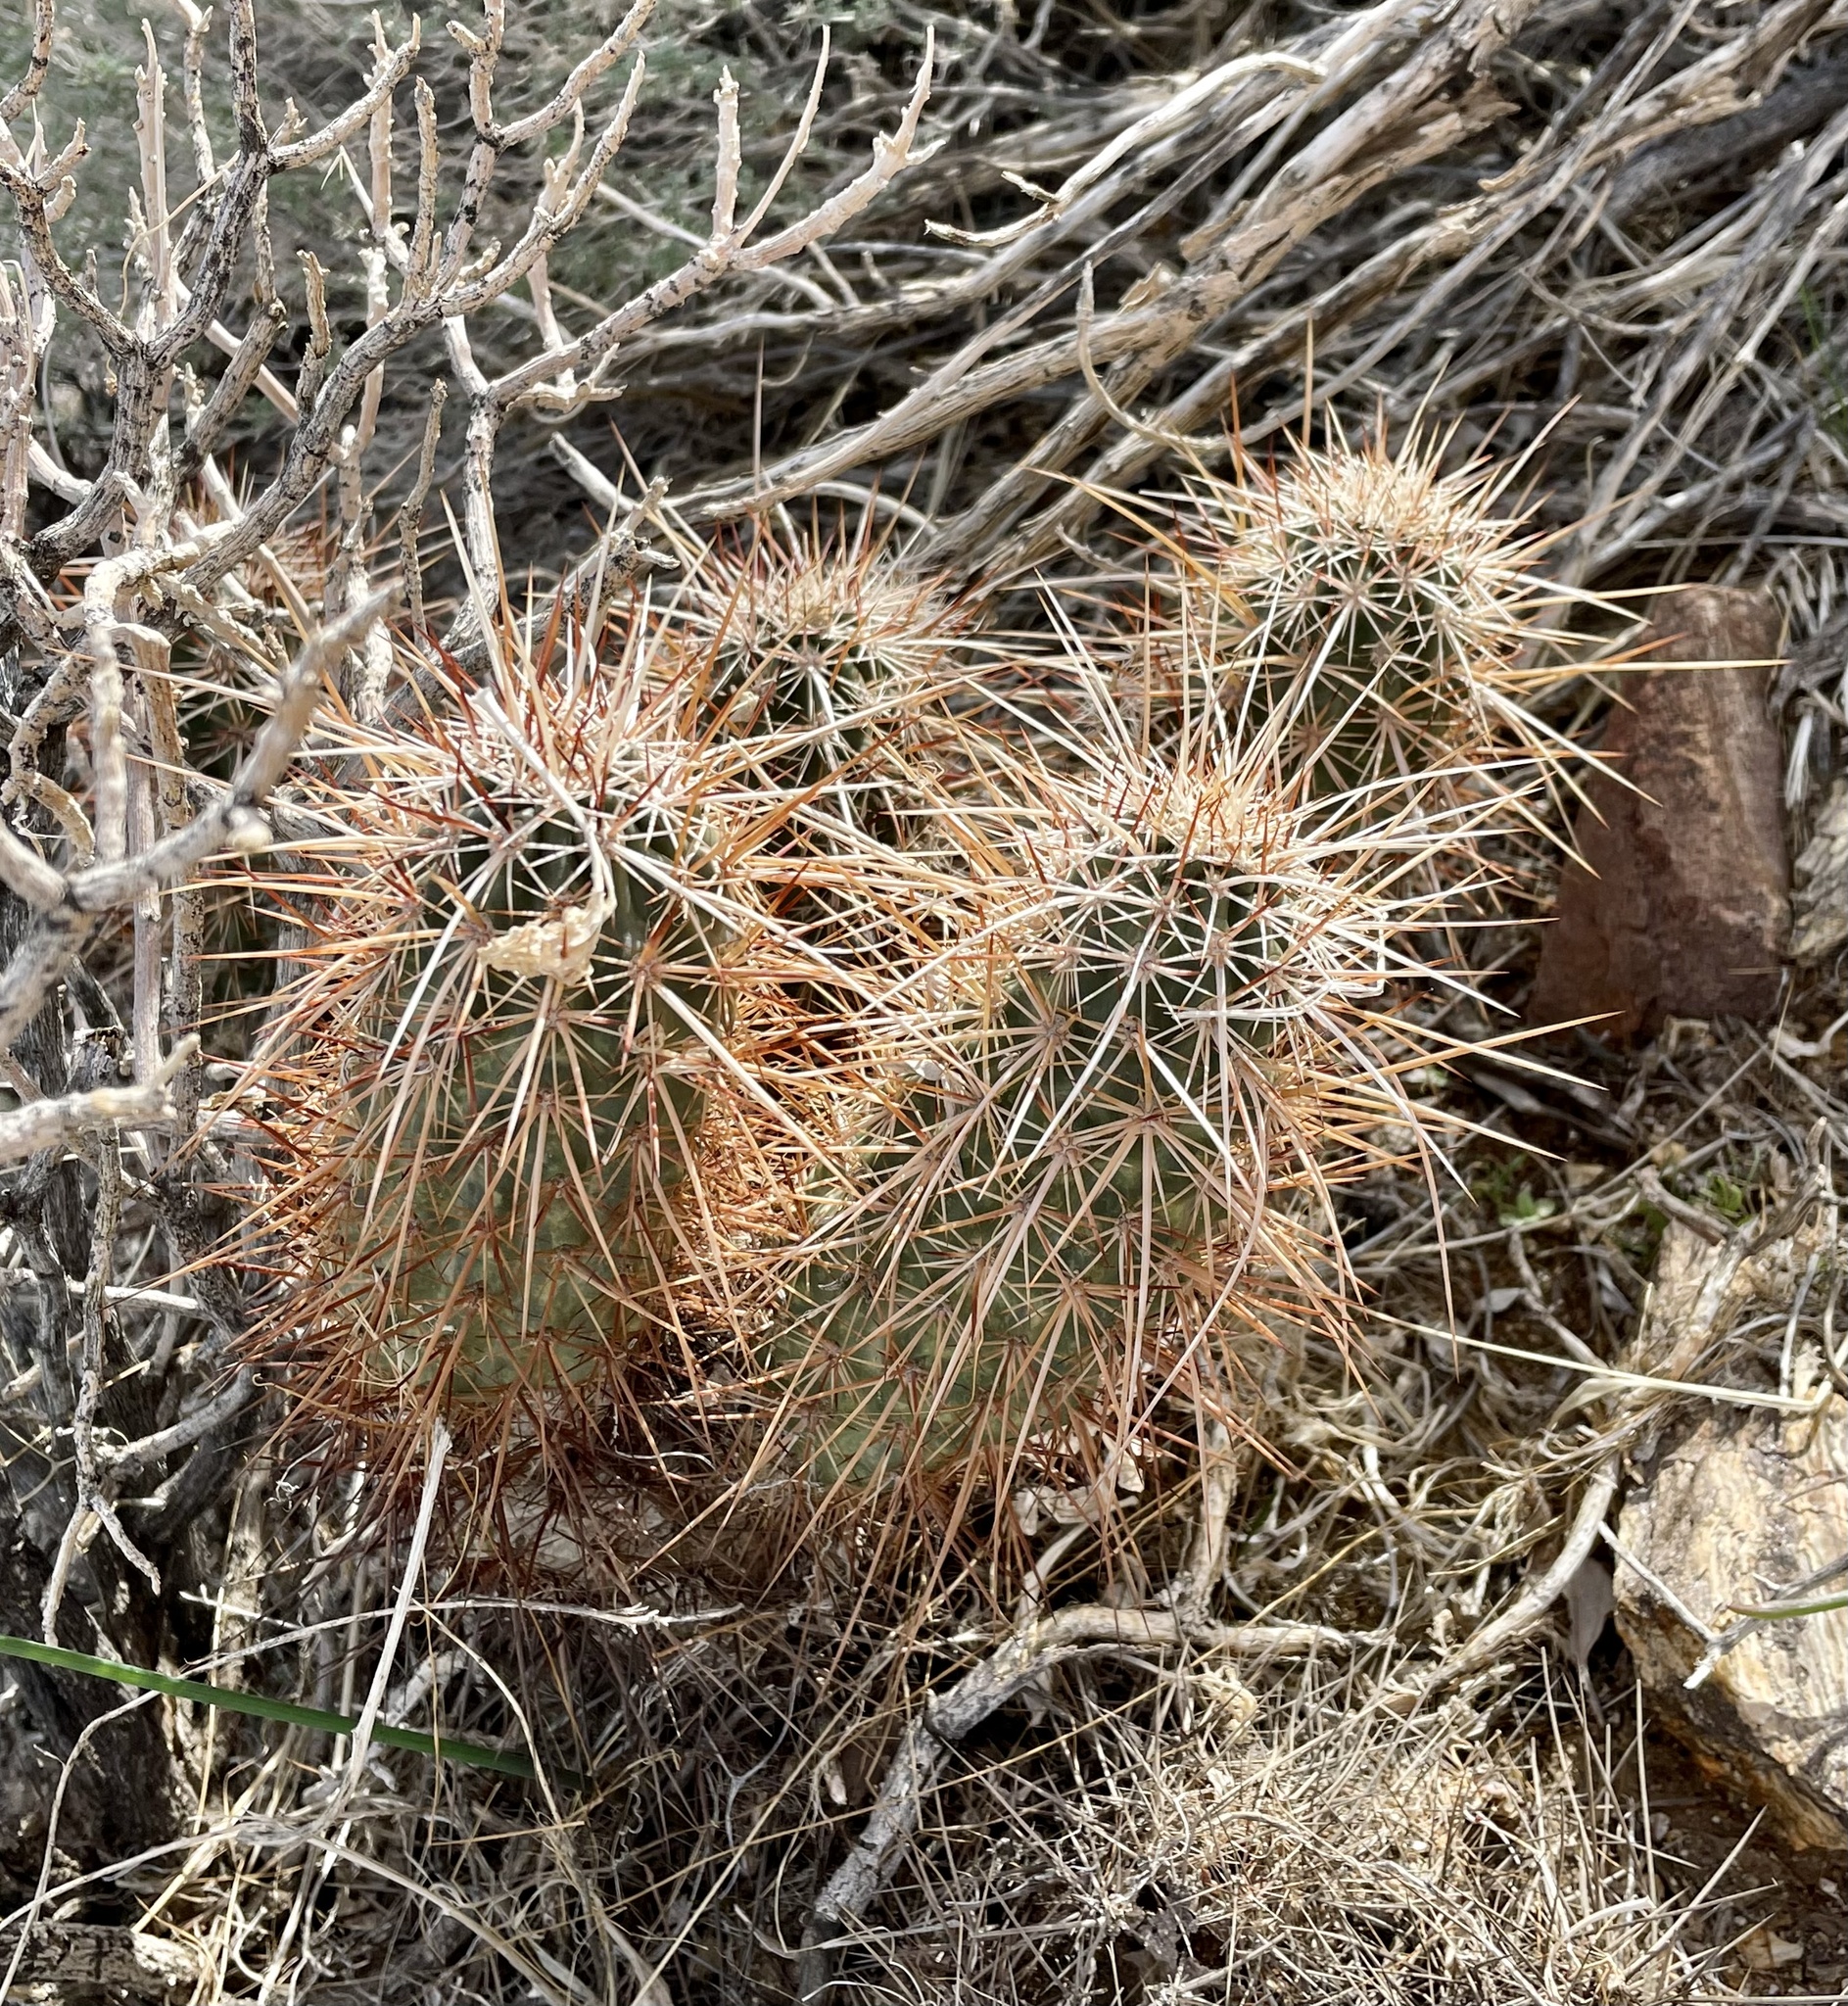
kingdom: Plantae
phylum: Tracheophyta
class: Magnoliopsida
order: Caryophyllales
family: Cactaceae
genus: Echinocereus
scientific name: Echinocereus engelmannii
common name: Engelmann's hedgehog cactus
